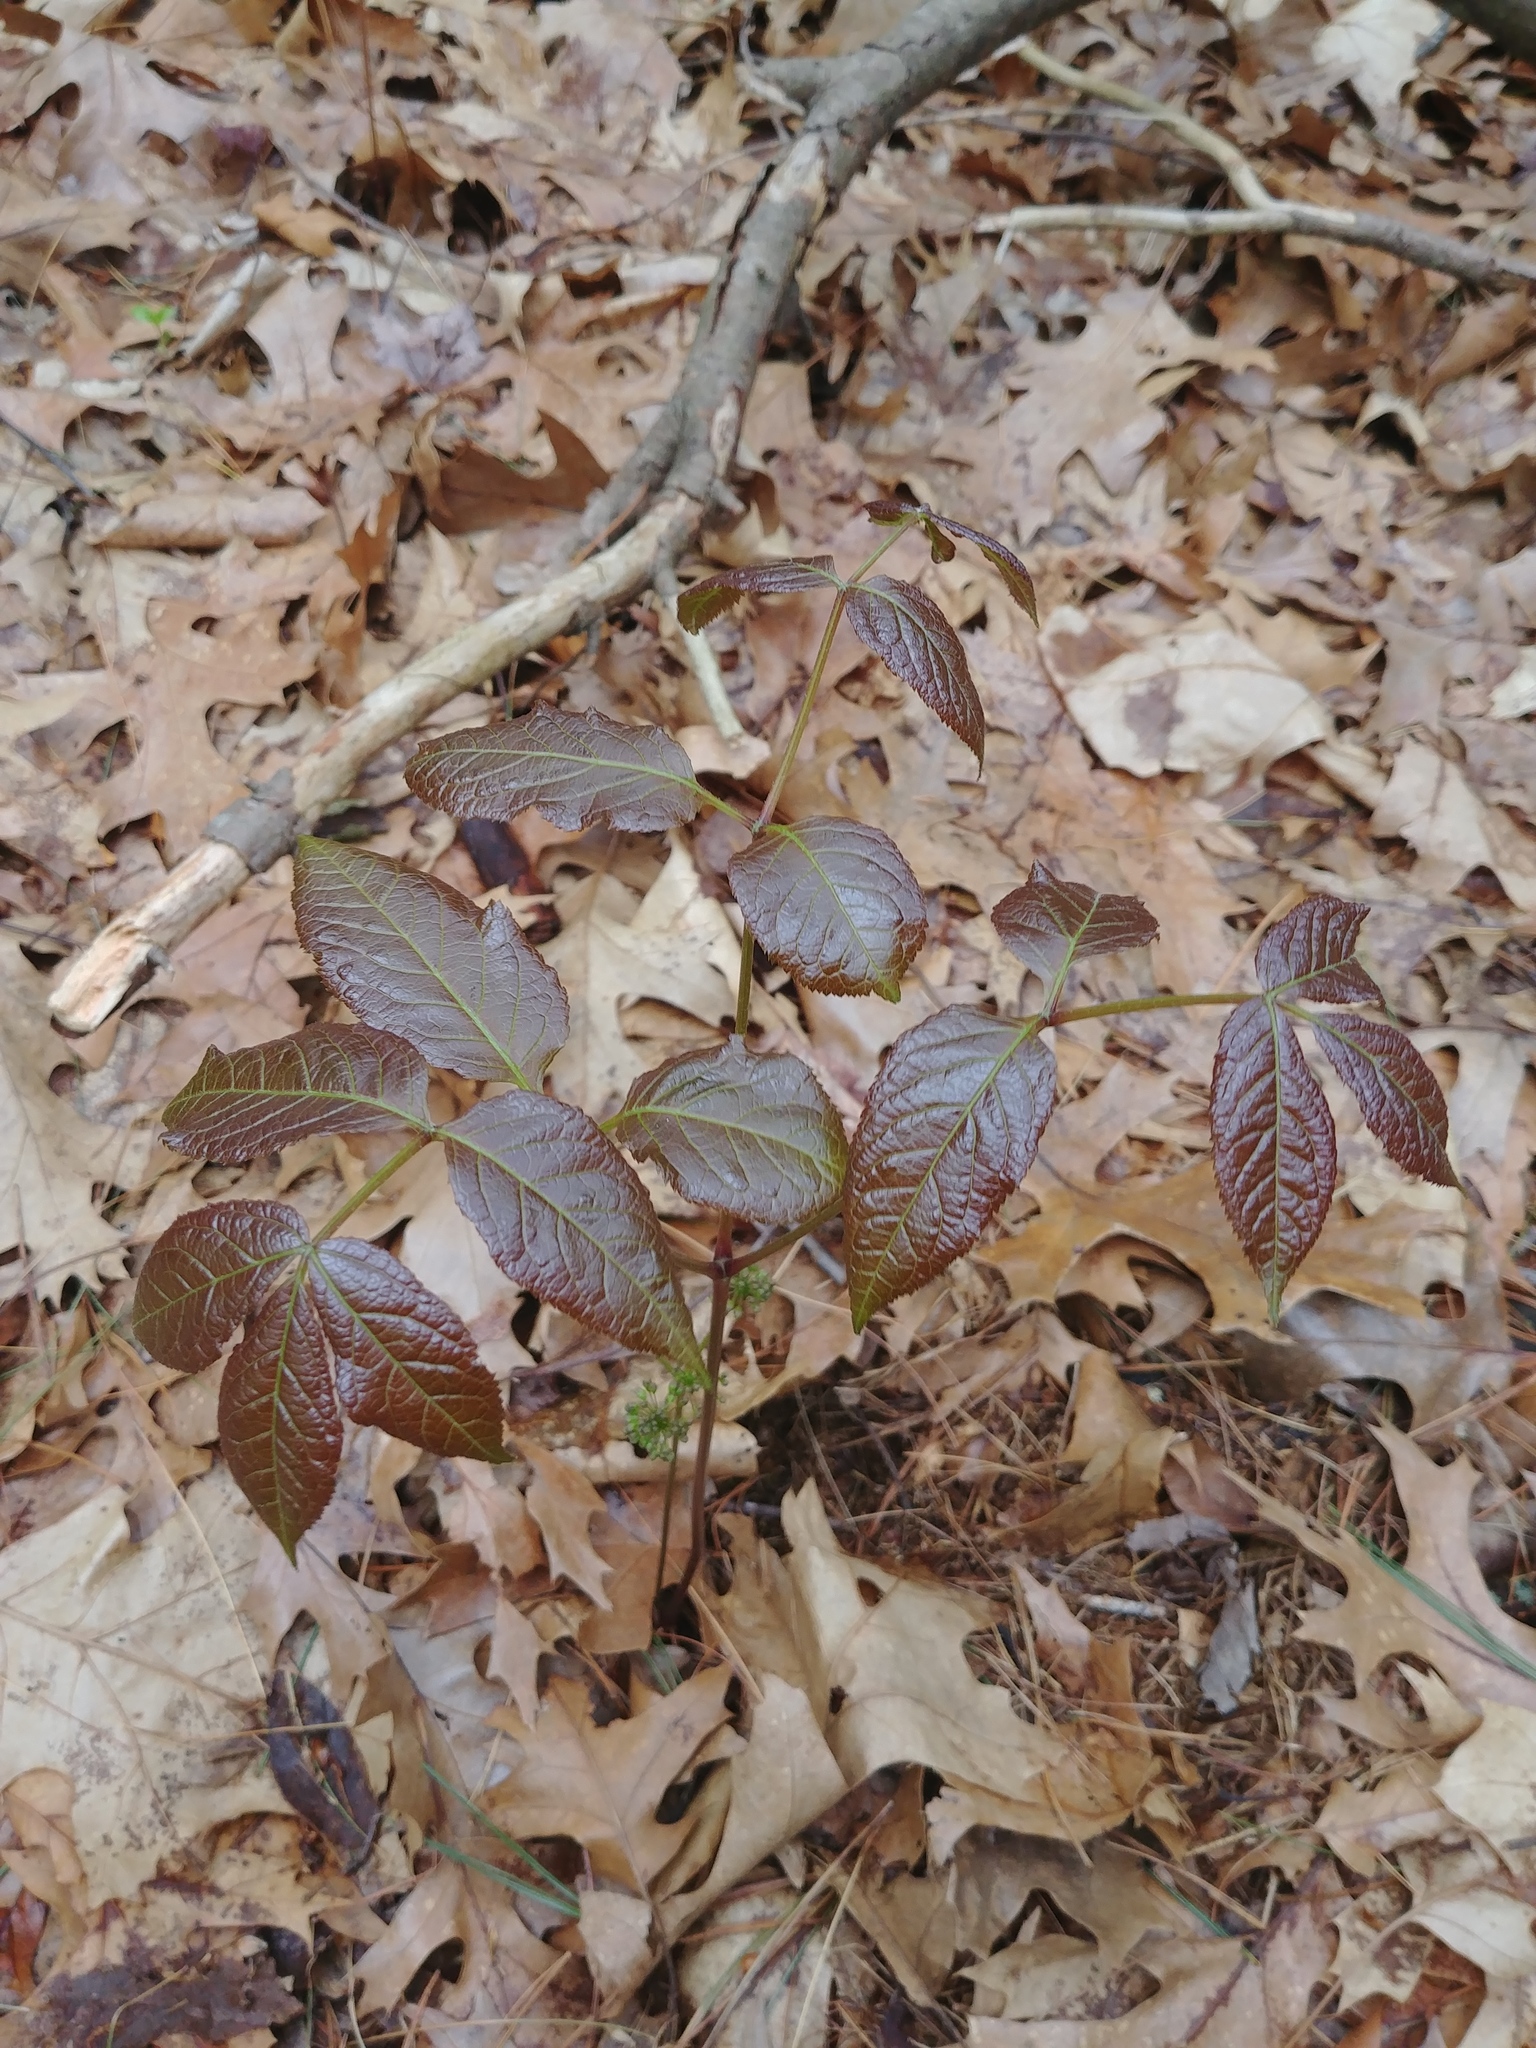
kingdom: Plantae
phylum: Tracheophyta
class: Magnoliopsida
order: Apiales
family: Araliaceae
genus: Aralia
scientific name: Aralia nudicaulis
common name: Wild sarsaparilla
